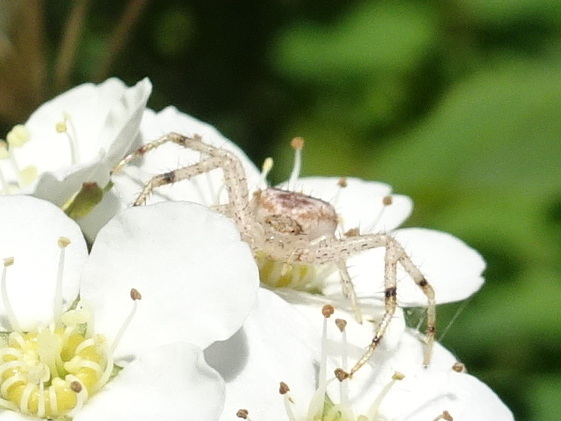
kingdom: Animalia
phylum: Arthropoda
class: Arachnida
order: Araneae
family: Thomisidae
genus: Mecaphesa
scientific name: Mecaphesa asperata
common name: Crab spiders
